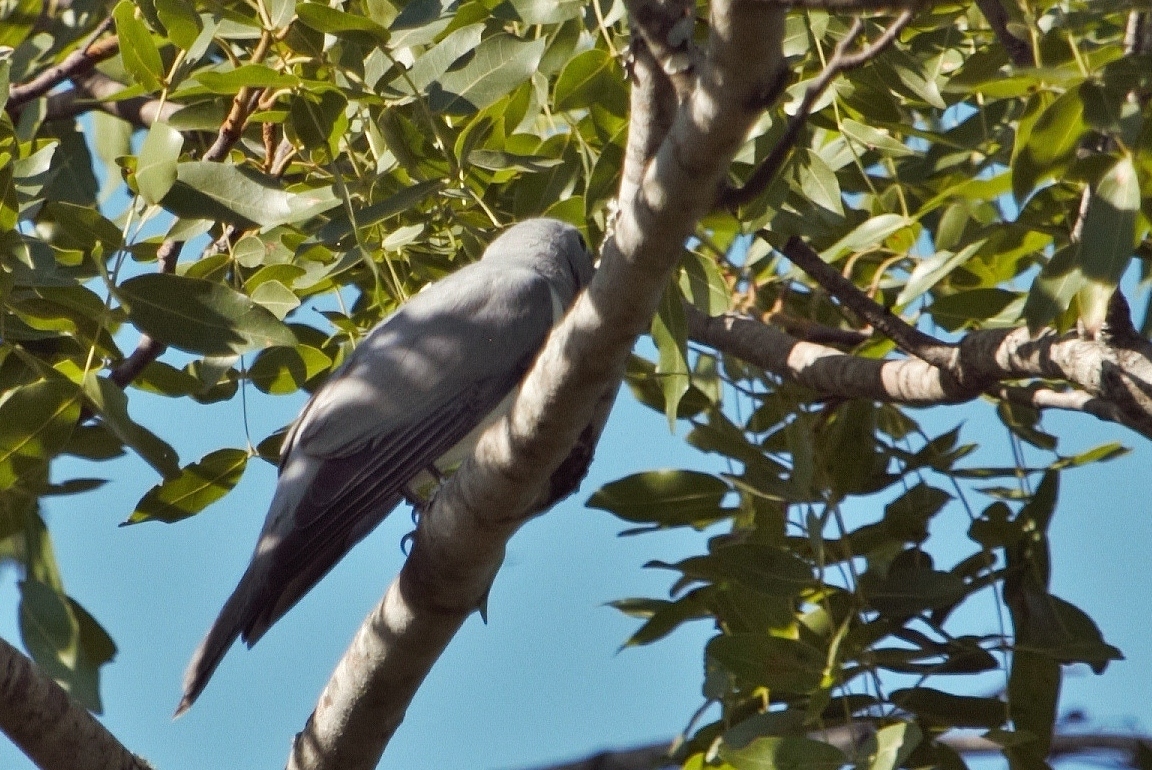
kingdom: Animalia
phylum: Chordata
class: Aves
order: Passeriformes
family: Campephagidae
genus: Coracina
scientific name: Coracina pectoralis
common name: White-breasted cuckooshrike
